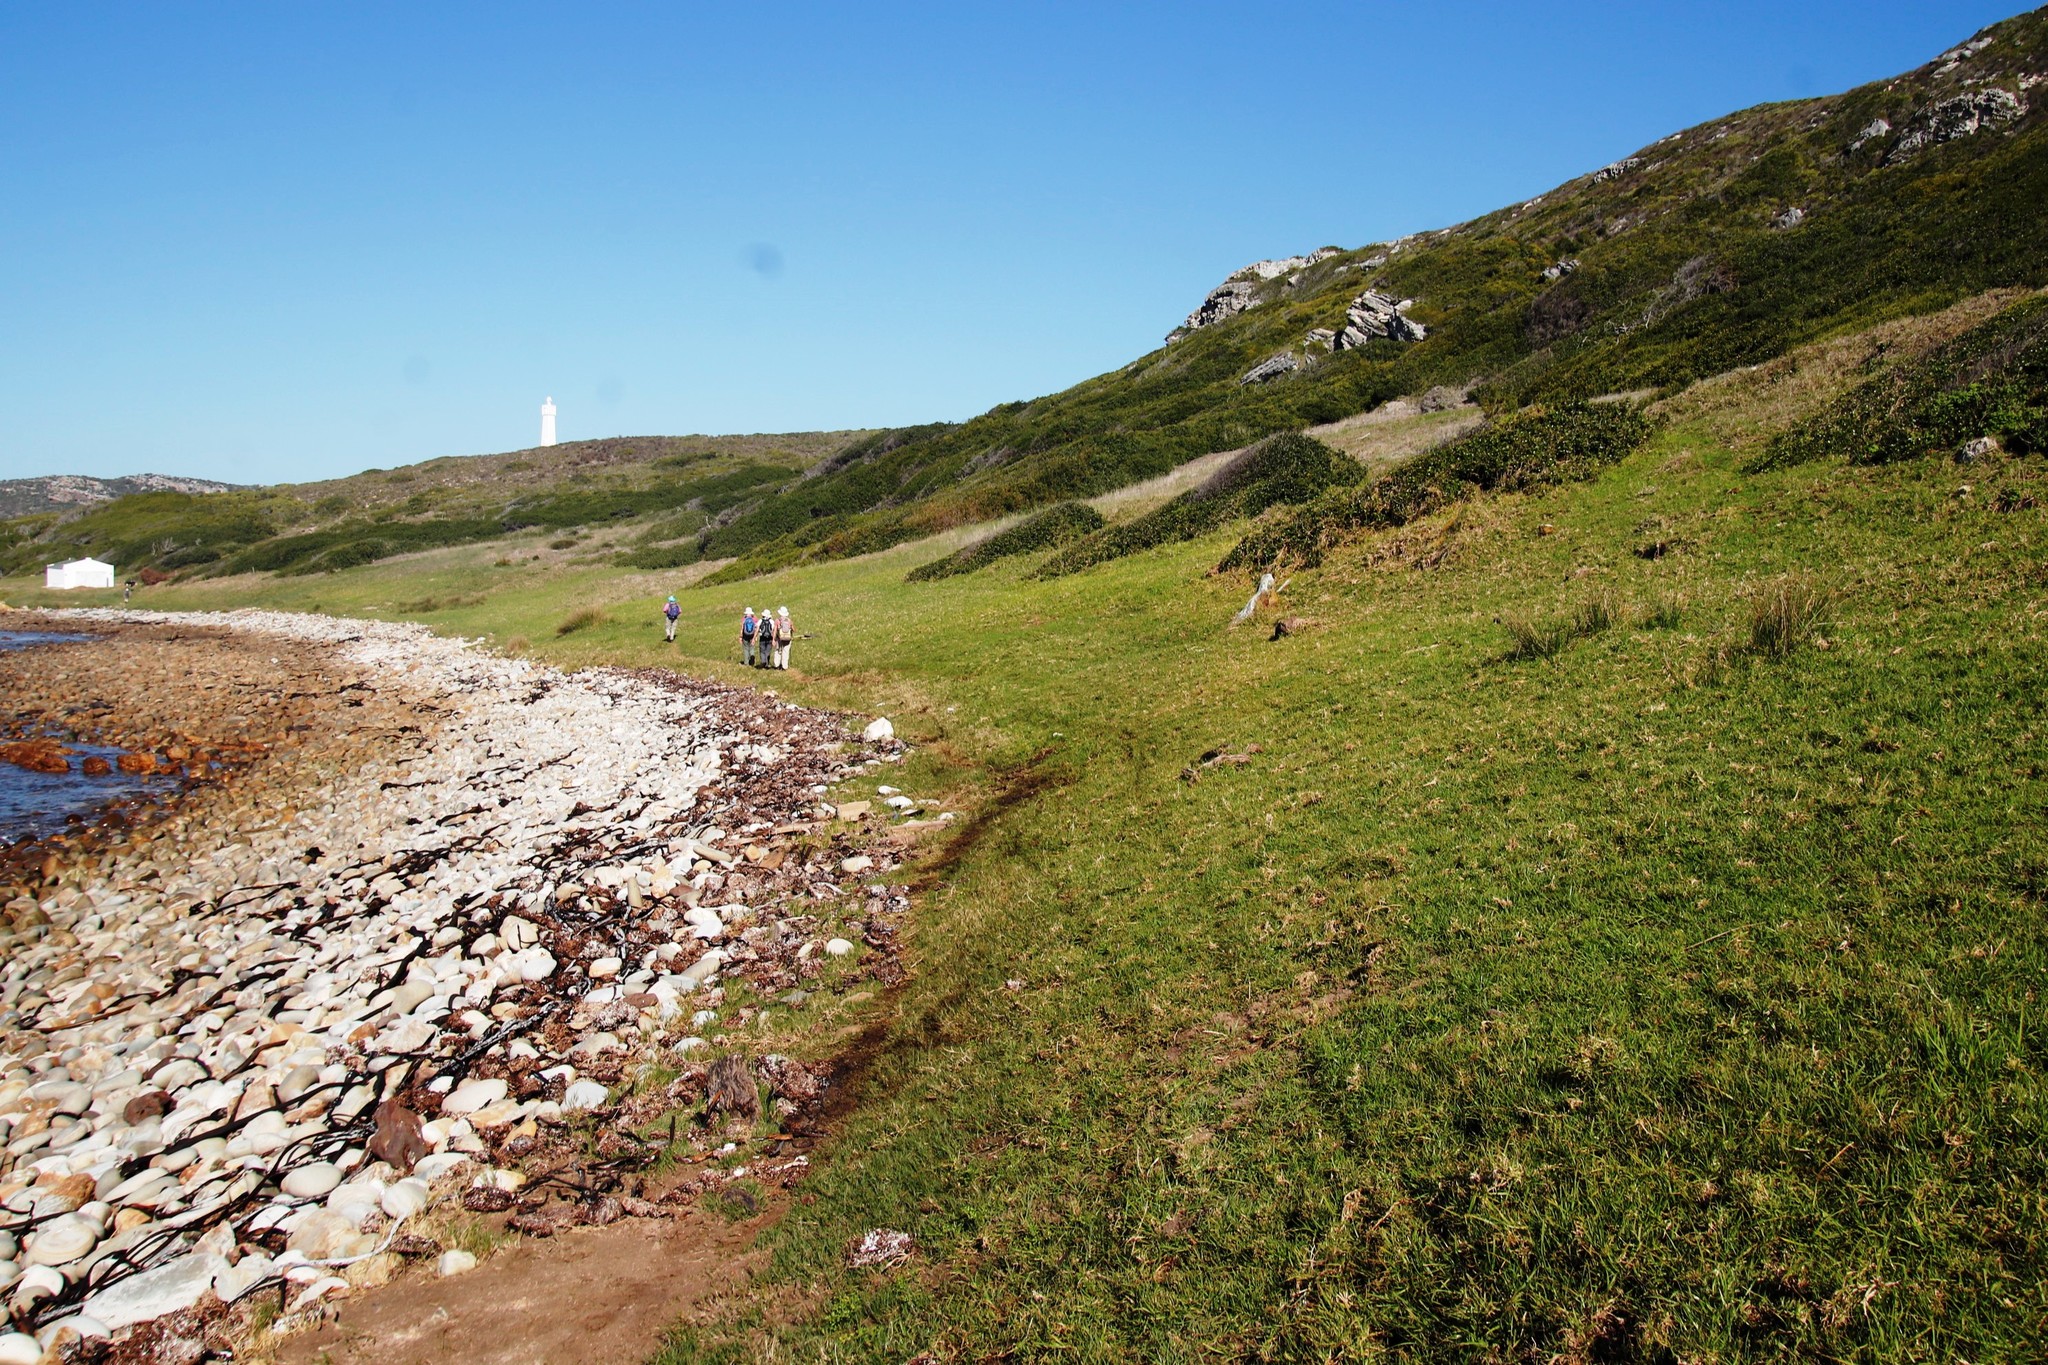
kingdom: Plantae
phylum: Tracheophyta
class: Liliopsida
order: Poales
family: Poaceae
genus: Cenchrus
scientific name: Cenchrus clandestinus
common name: Kikuyugrass
